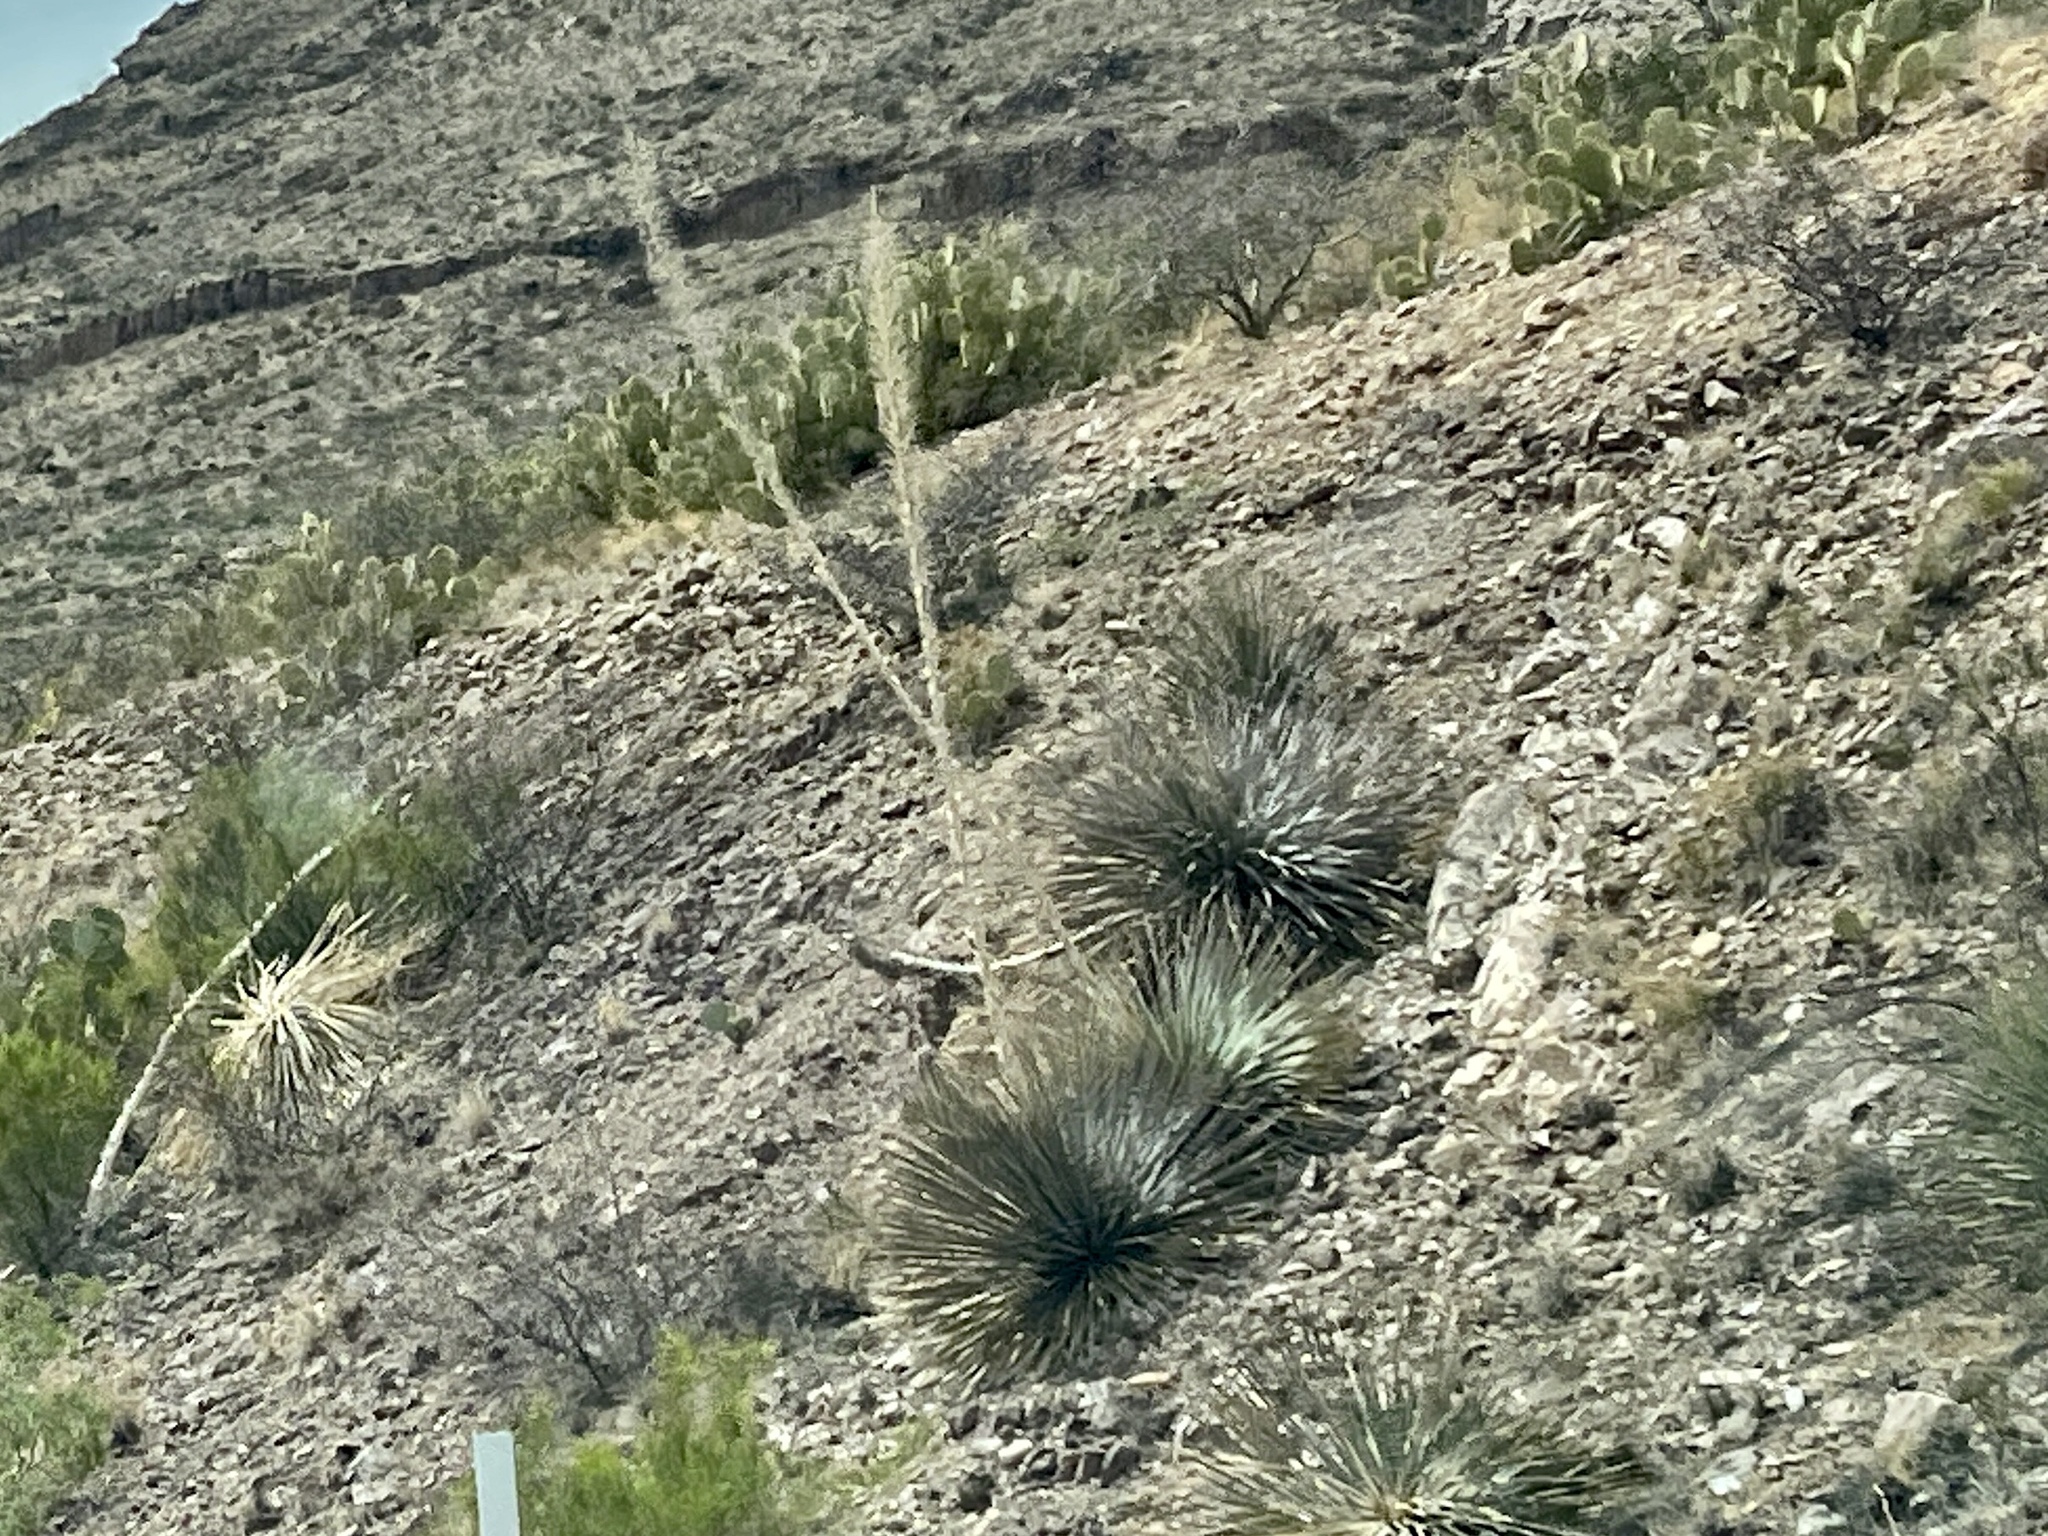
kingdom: Plantae
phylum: Tracheophyta
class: Liliopsida
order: Asparagales
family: Asparagaceae
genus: Dasylirion
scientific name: Dasylirion wheeleri
